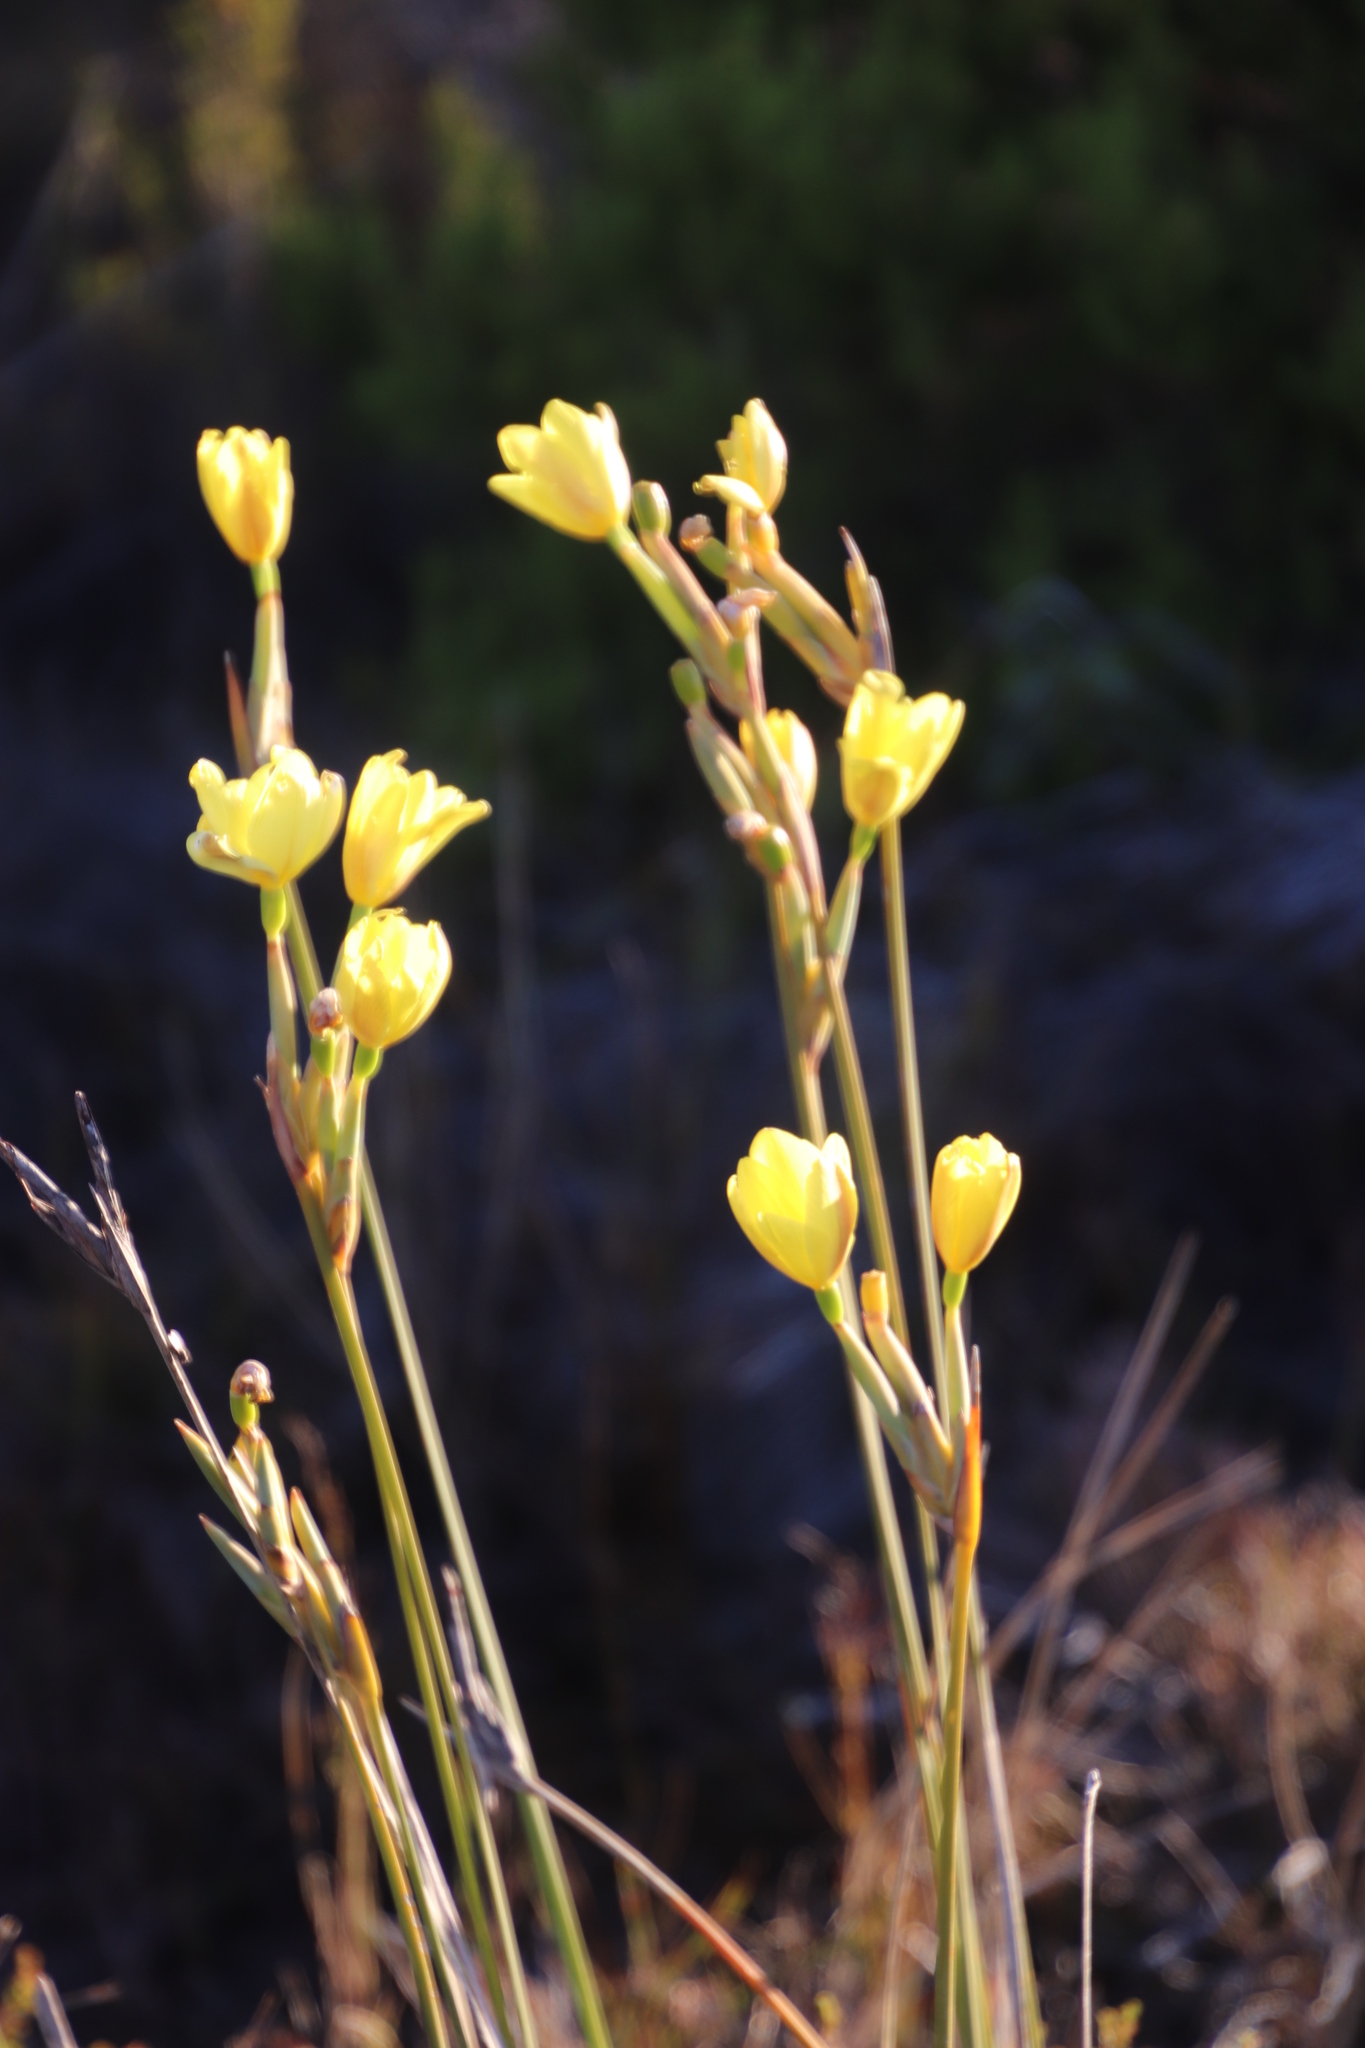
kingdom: Plantae
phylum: Tracheophyta
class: Liliopsida
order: Asparagales
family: Iridaceae
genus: Bobartia
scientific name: Bobartia gladiata
